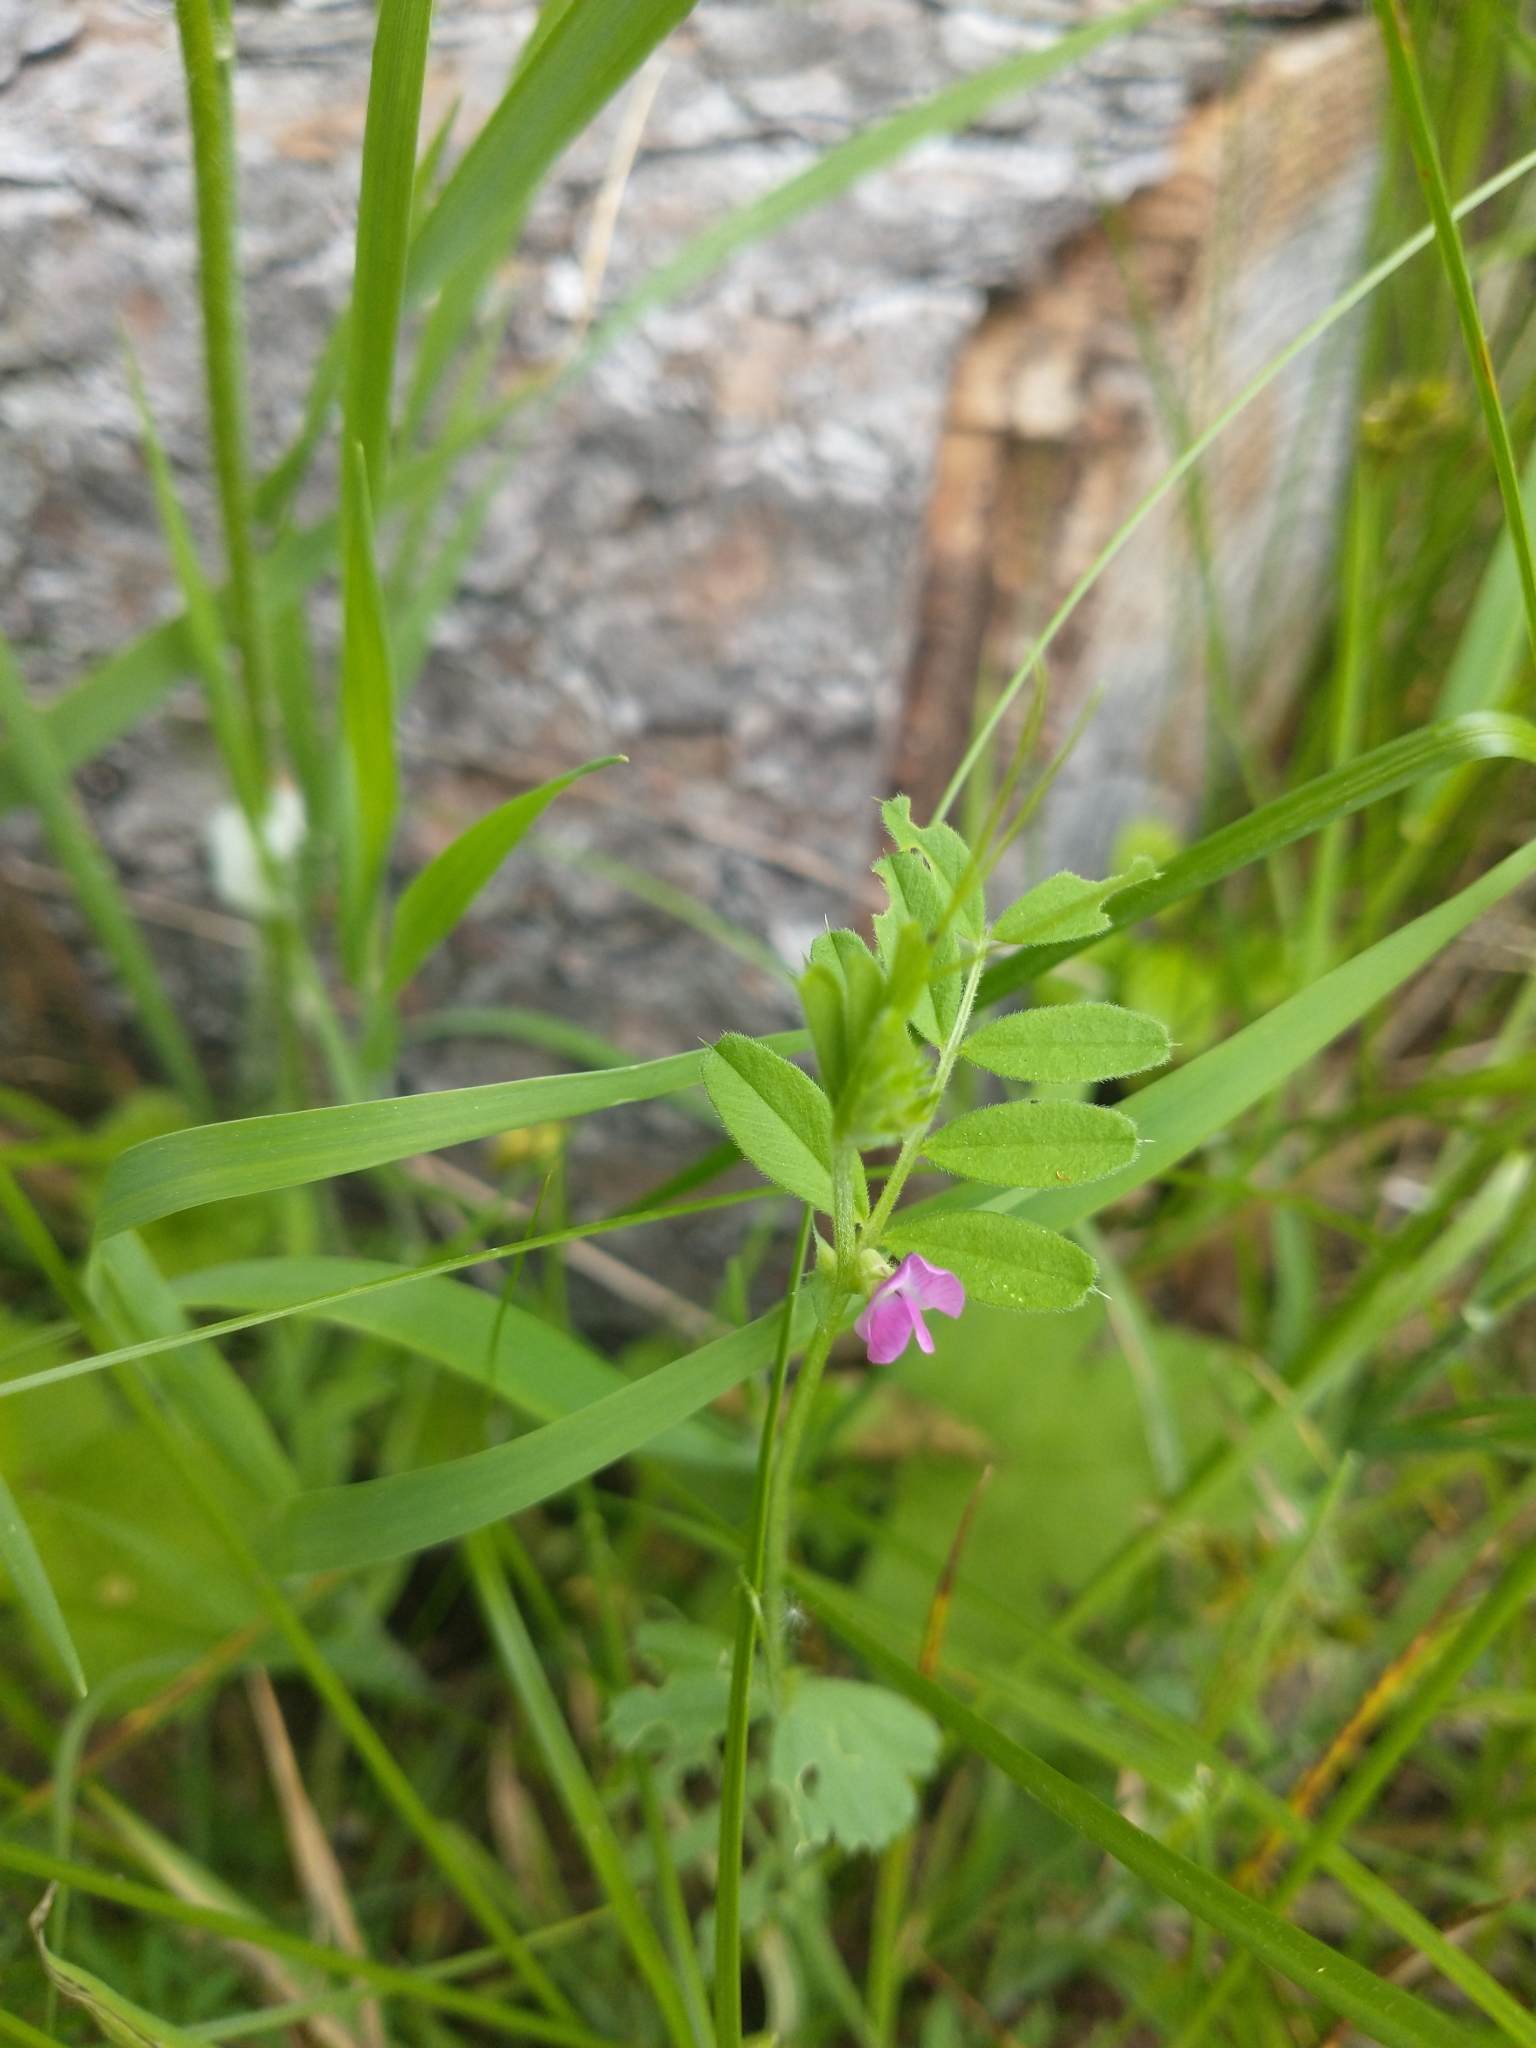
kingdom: Plantae
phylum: Tracheophyta
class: Magnoliopsida
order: Fabales
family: Fabaceae
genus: Vicia
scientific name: Vicia sativa
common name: Garden vetch
